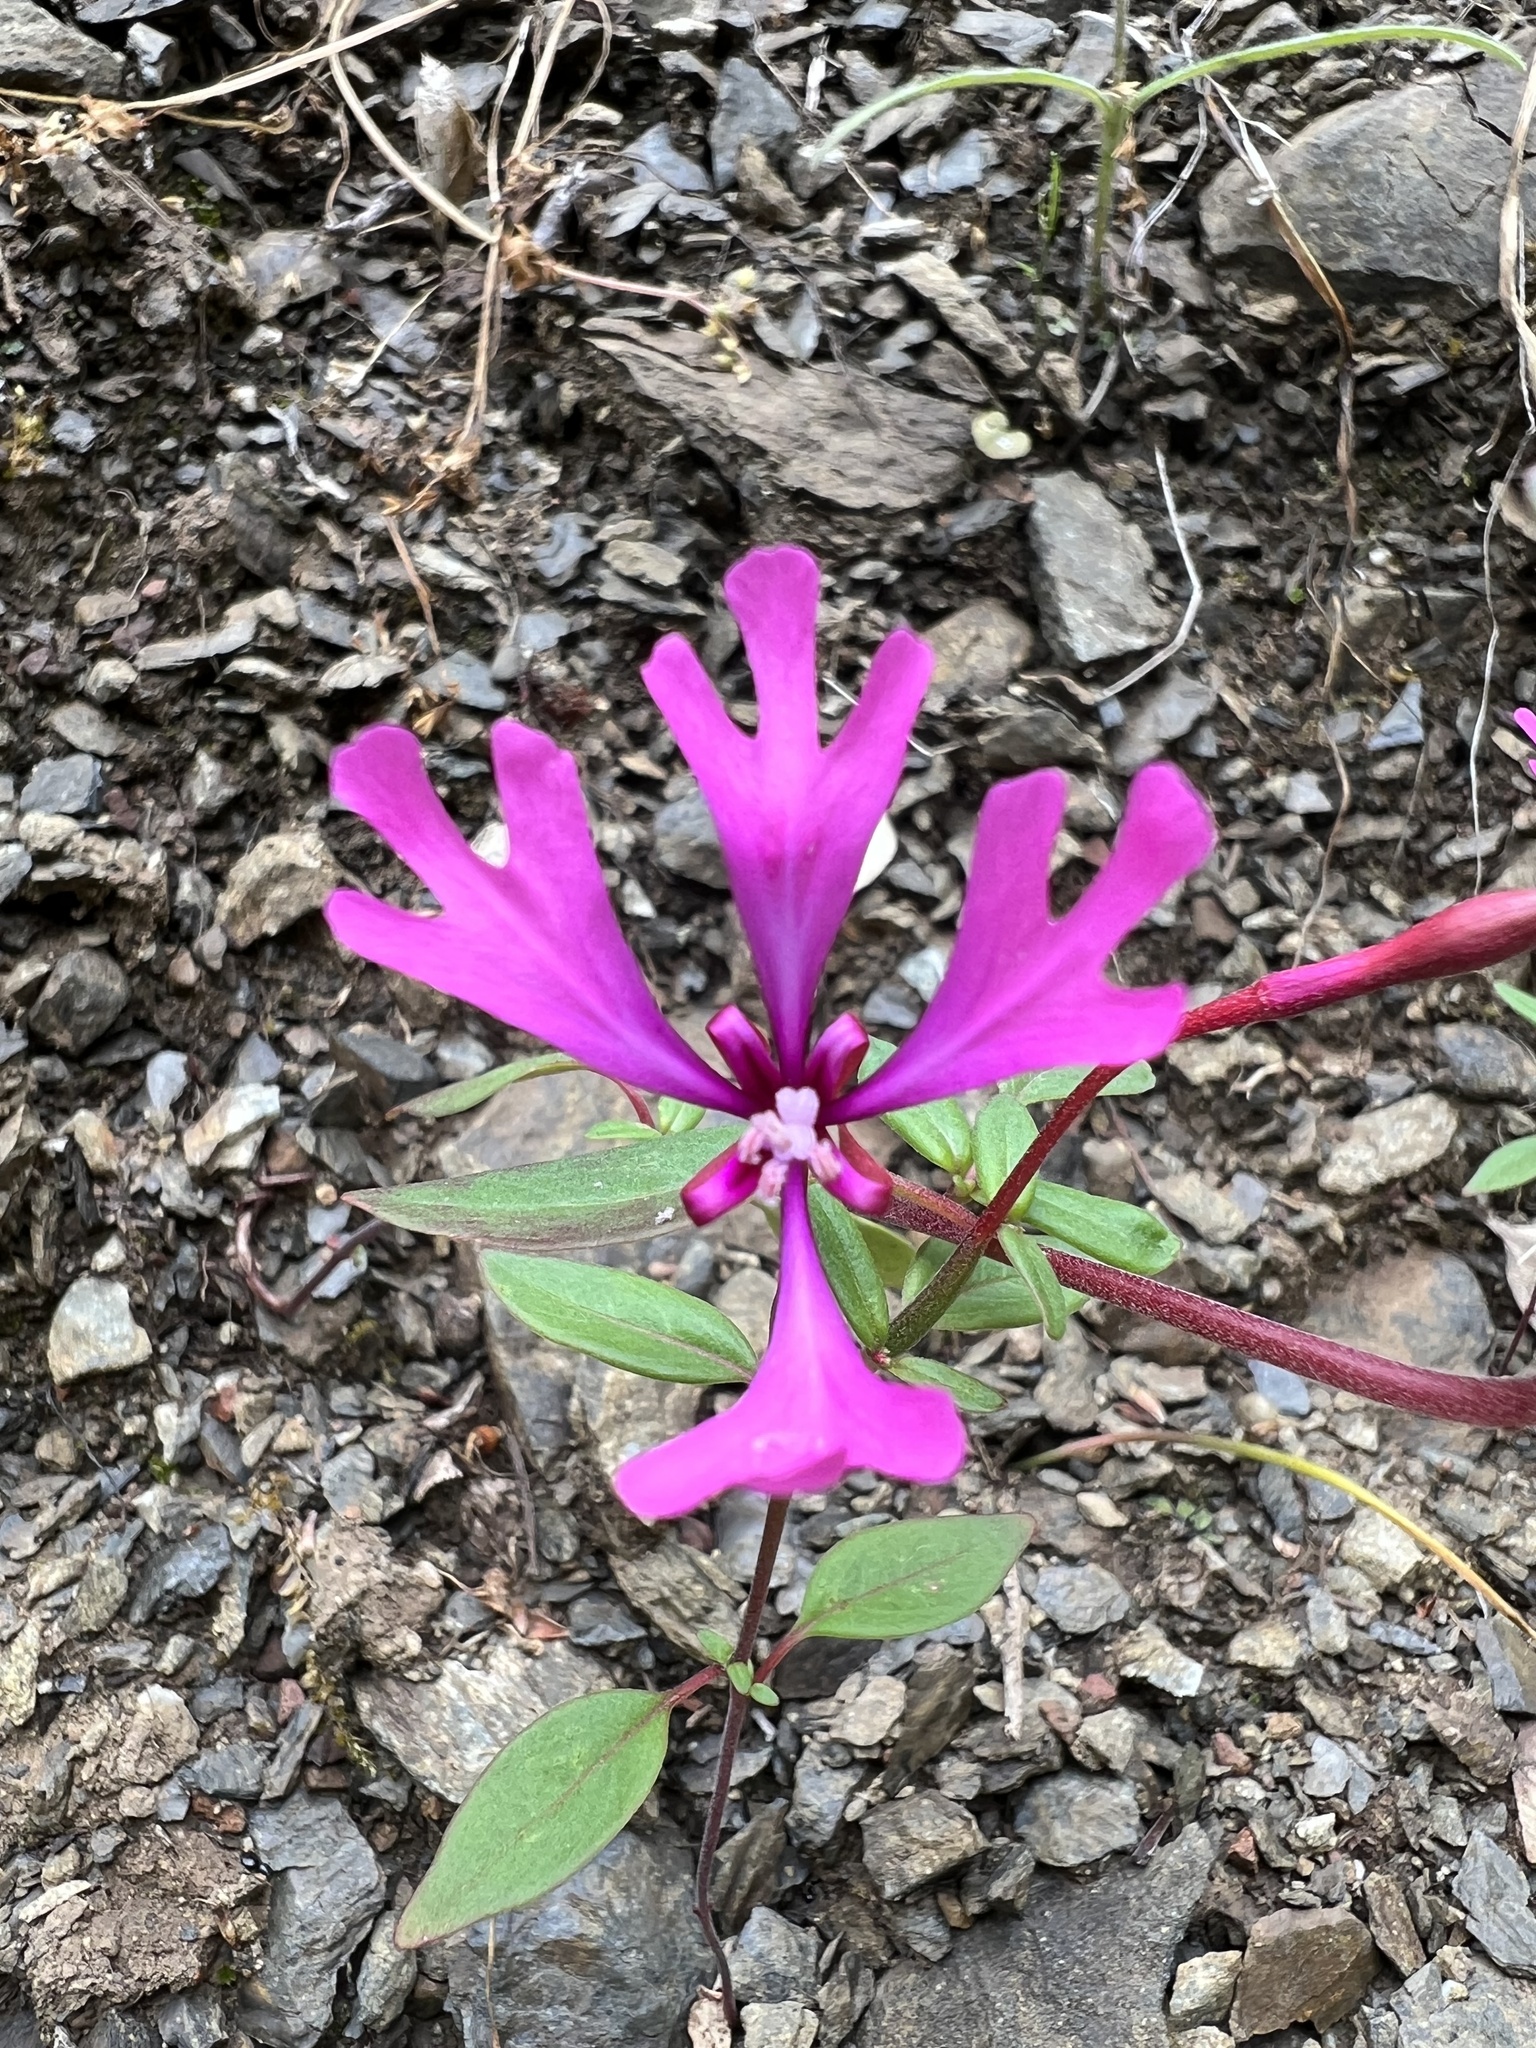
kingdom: Plantae
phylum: Tracheophyta
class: Magnoliopsida
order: Myrtales
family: Onagraceae
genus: Clarkia
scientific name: Clarkia concinna
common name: Red-ribbons
